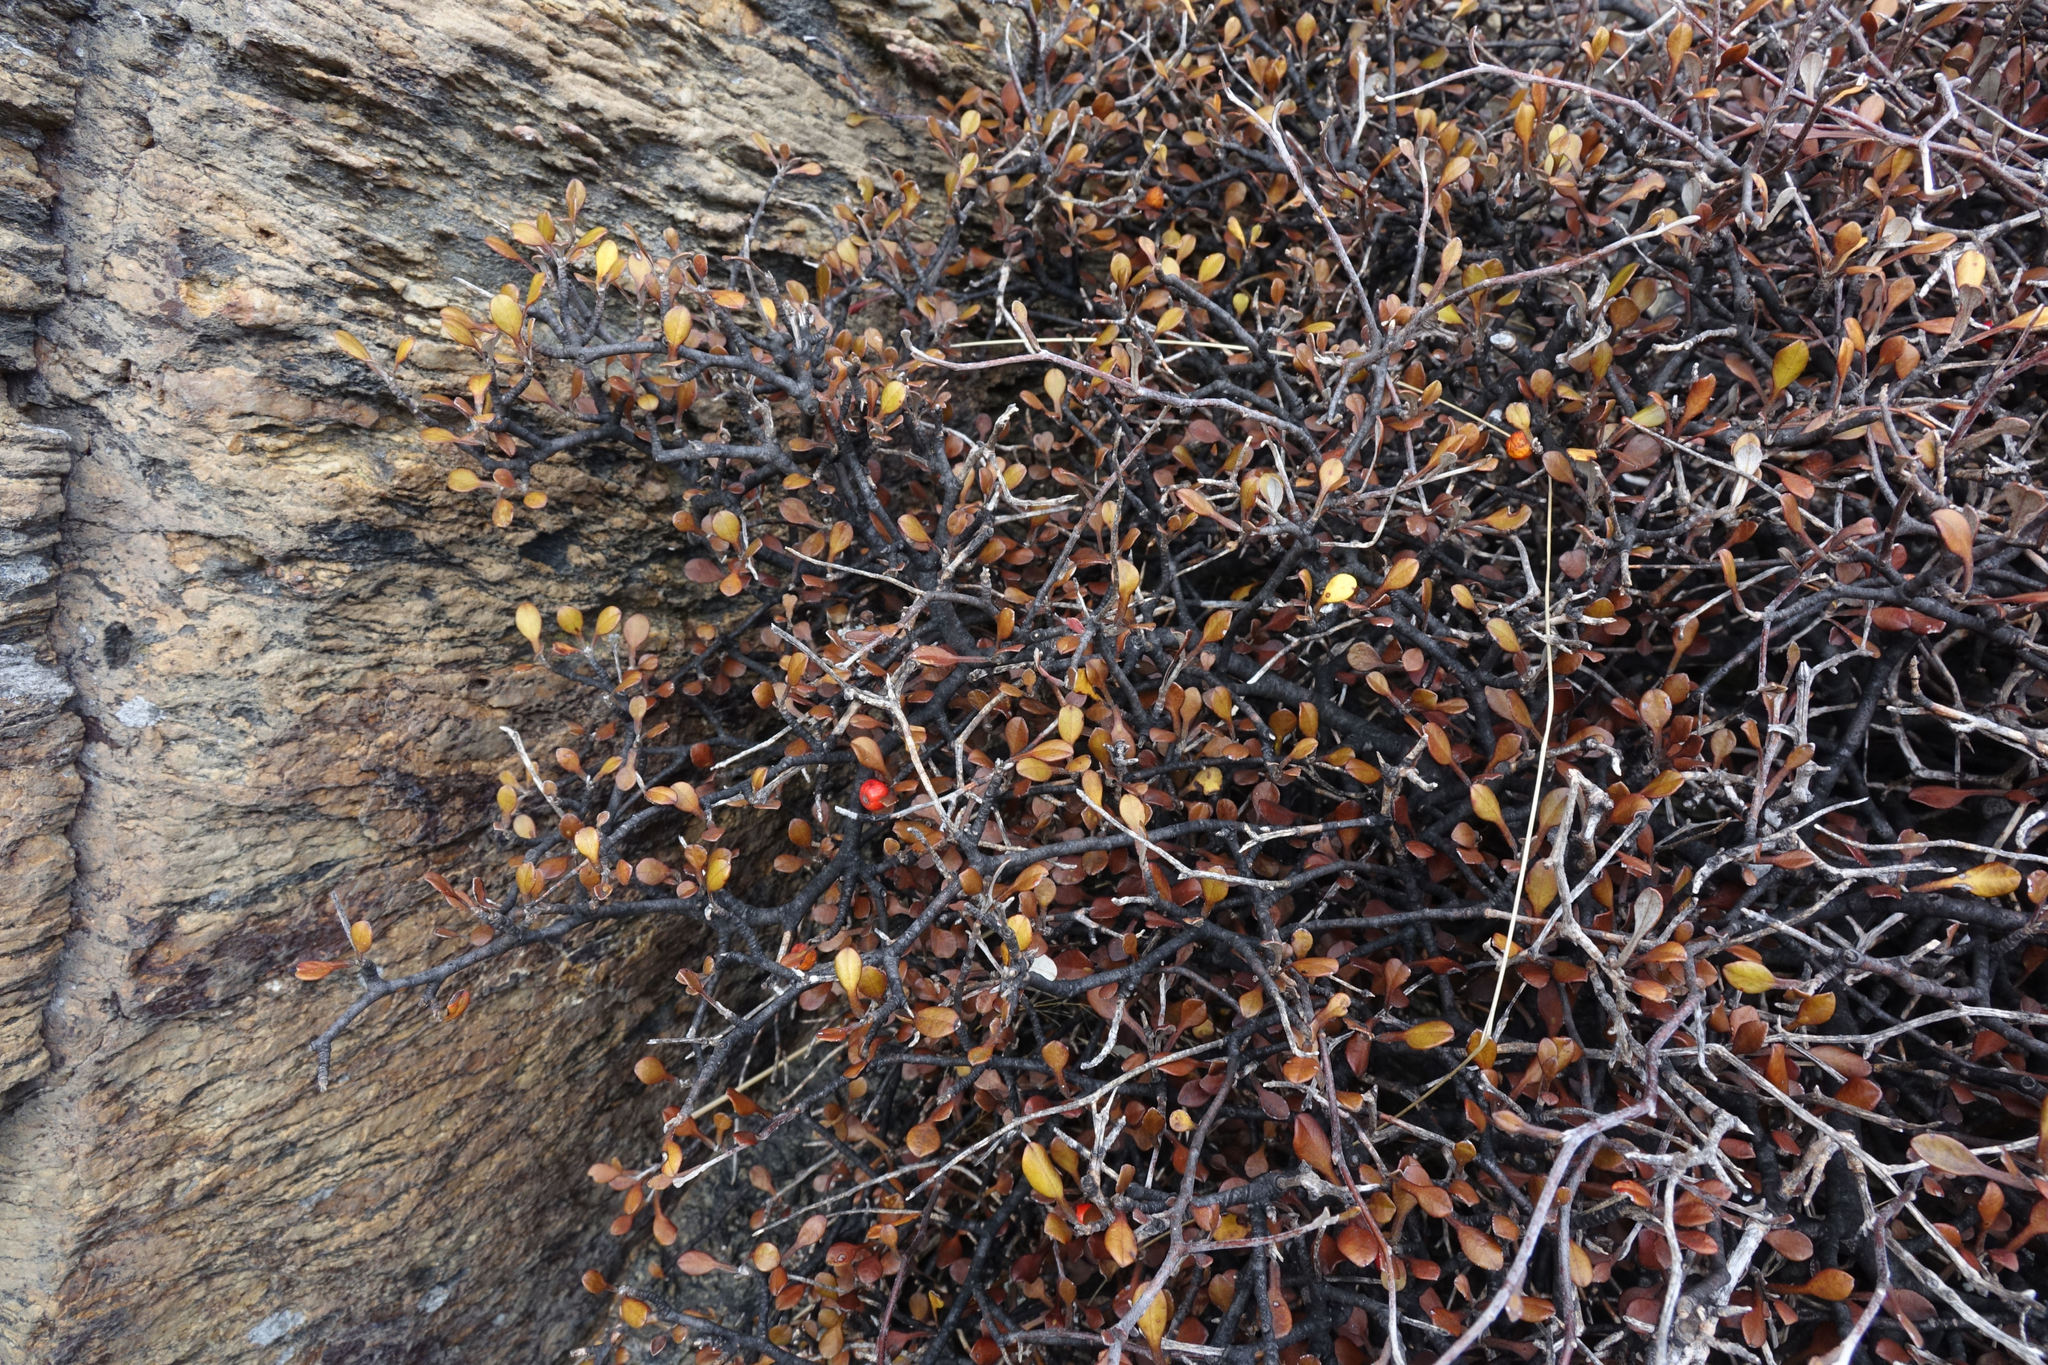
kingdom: Plantae
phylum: Tracheophyta
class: Magnoliopsida
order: Asterales
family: Argophyllaceae
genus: Corokia
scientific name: Corokia cotoneaster
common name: Wire nettingbush
